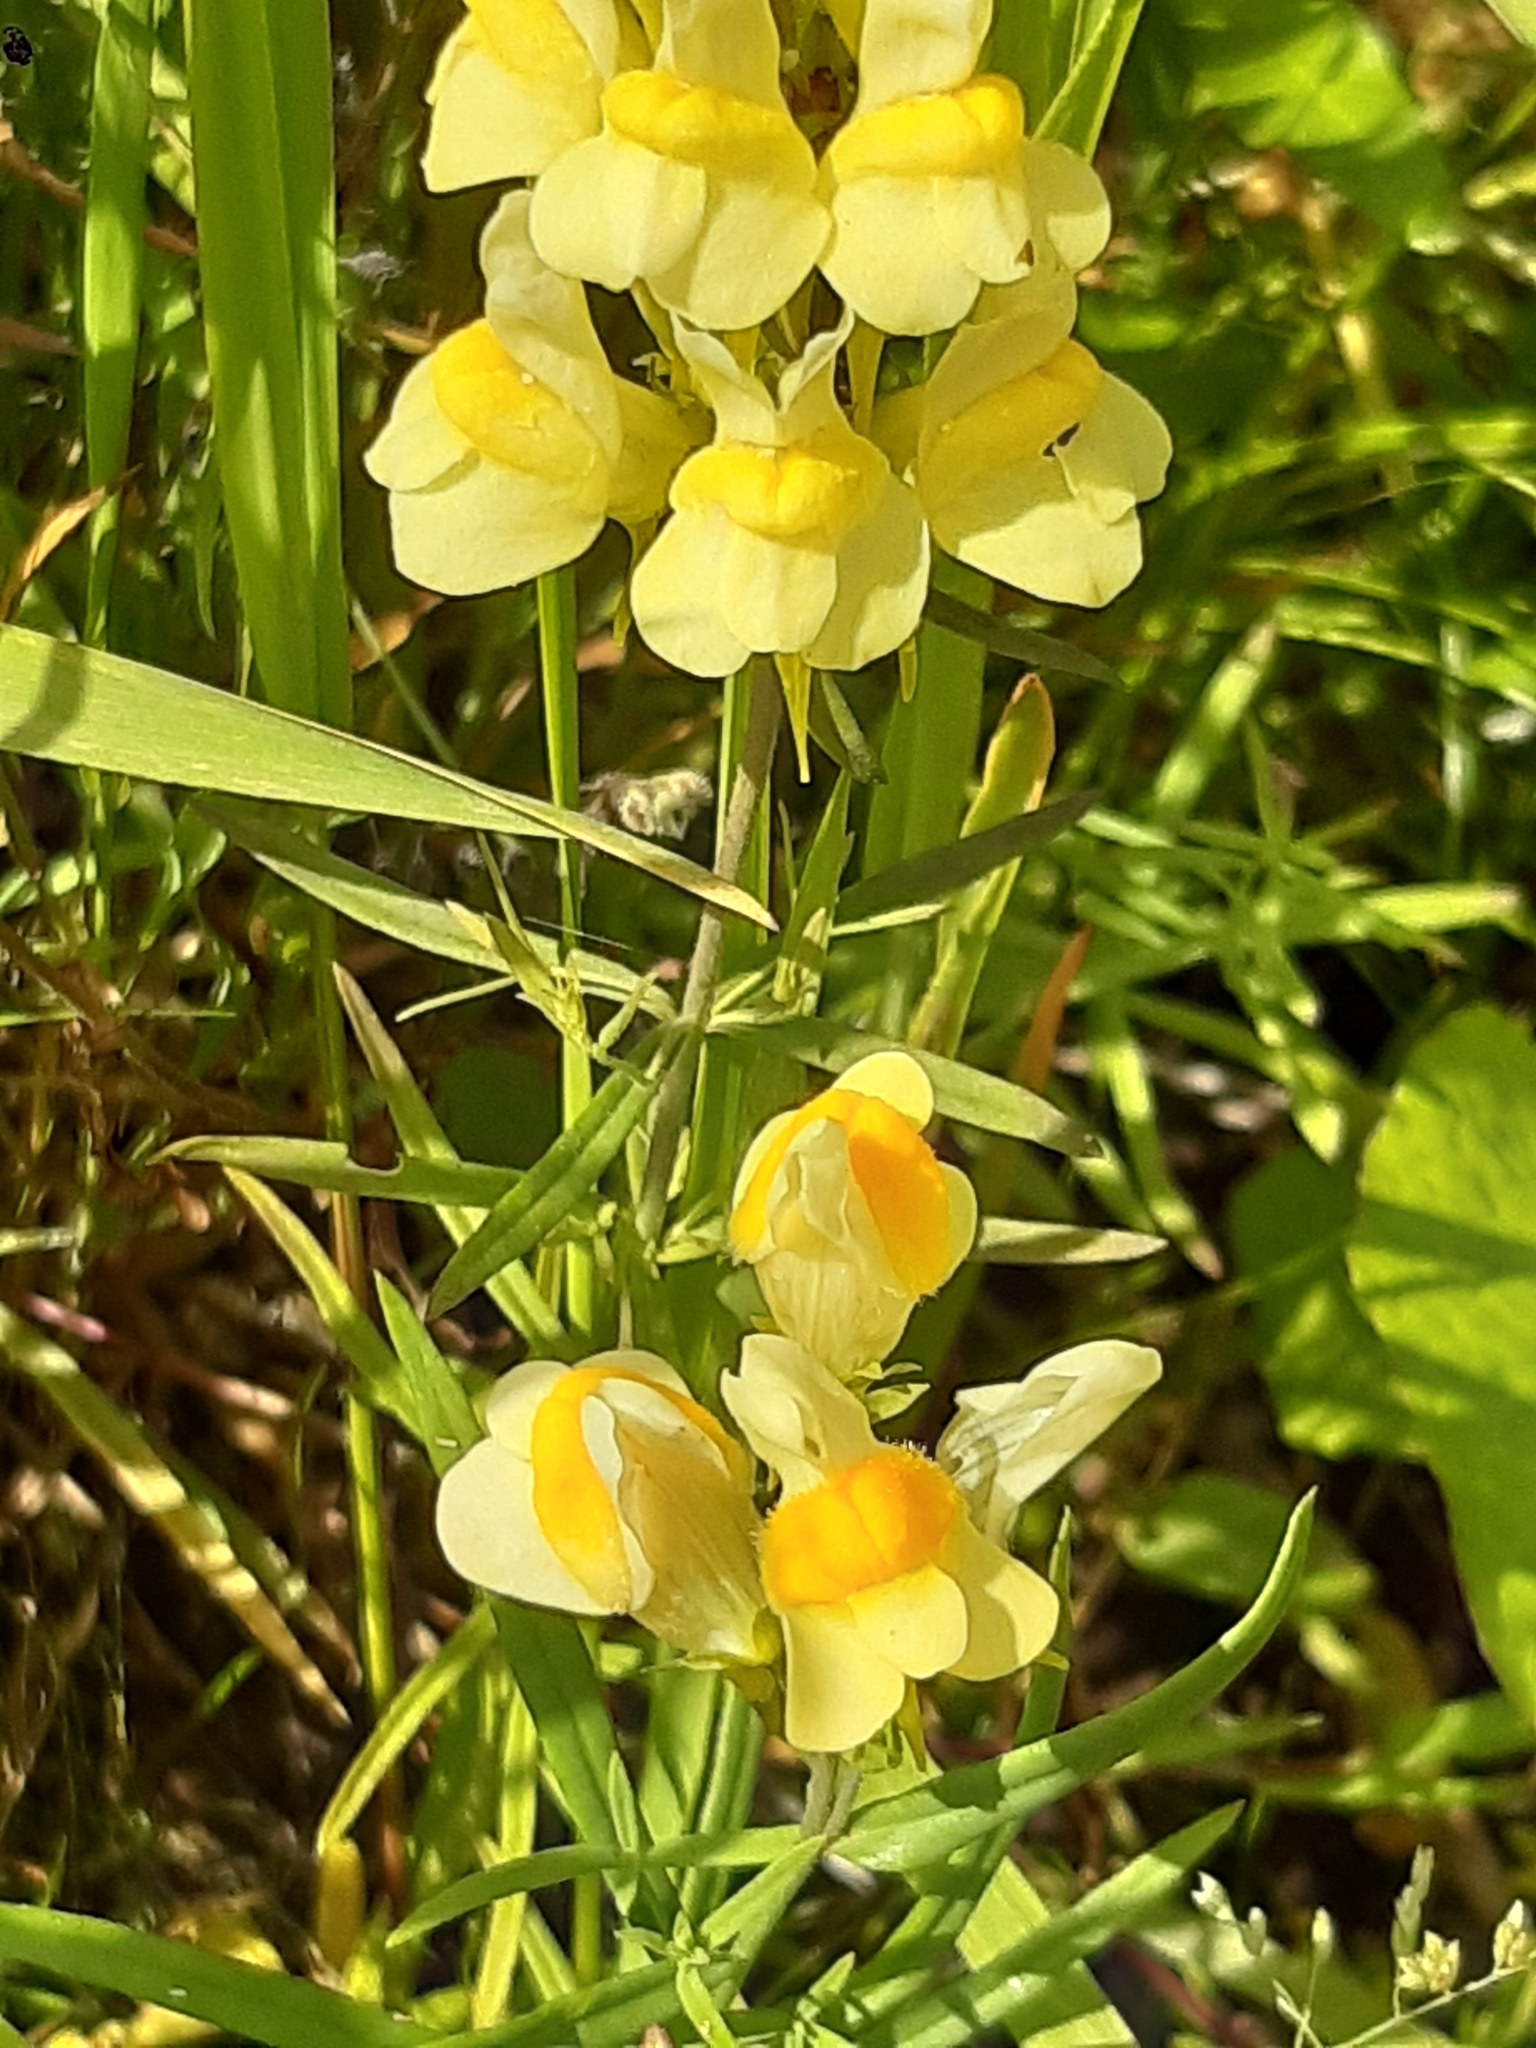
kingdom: Plantae
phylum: Tracheophyta
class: Magnoliopsida
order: Lamiales
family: Plantaginaceae
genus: Linaria
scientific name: Linaria vulgaris
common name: Butter and eggs
